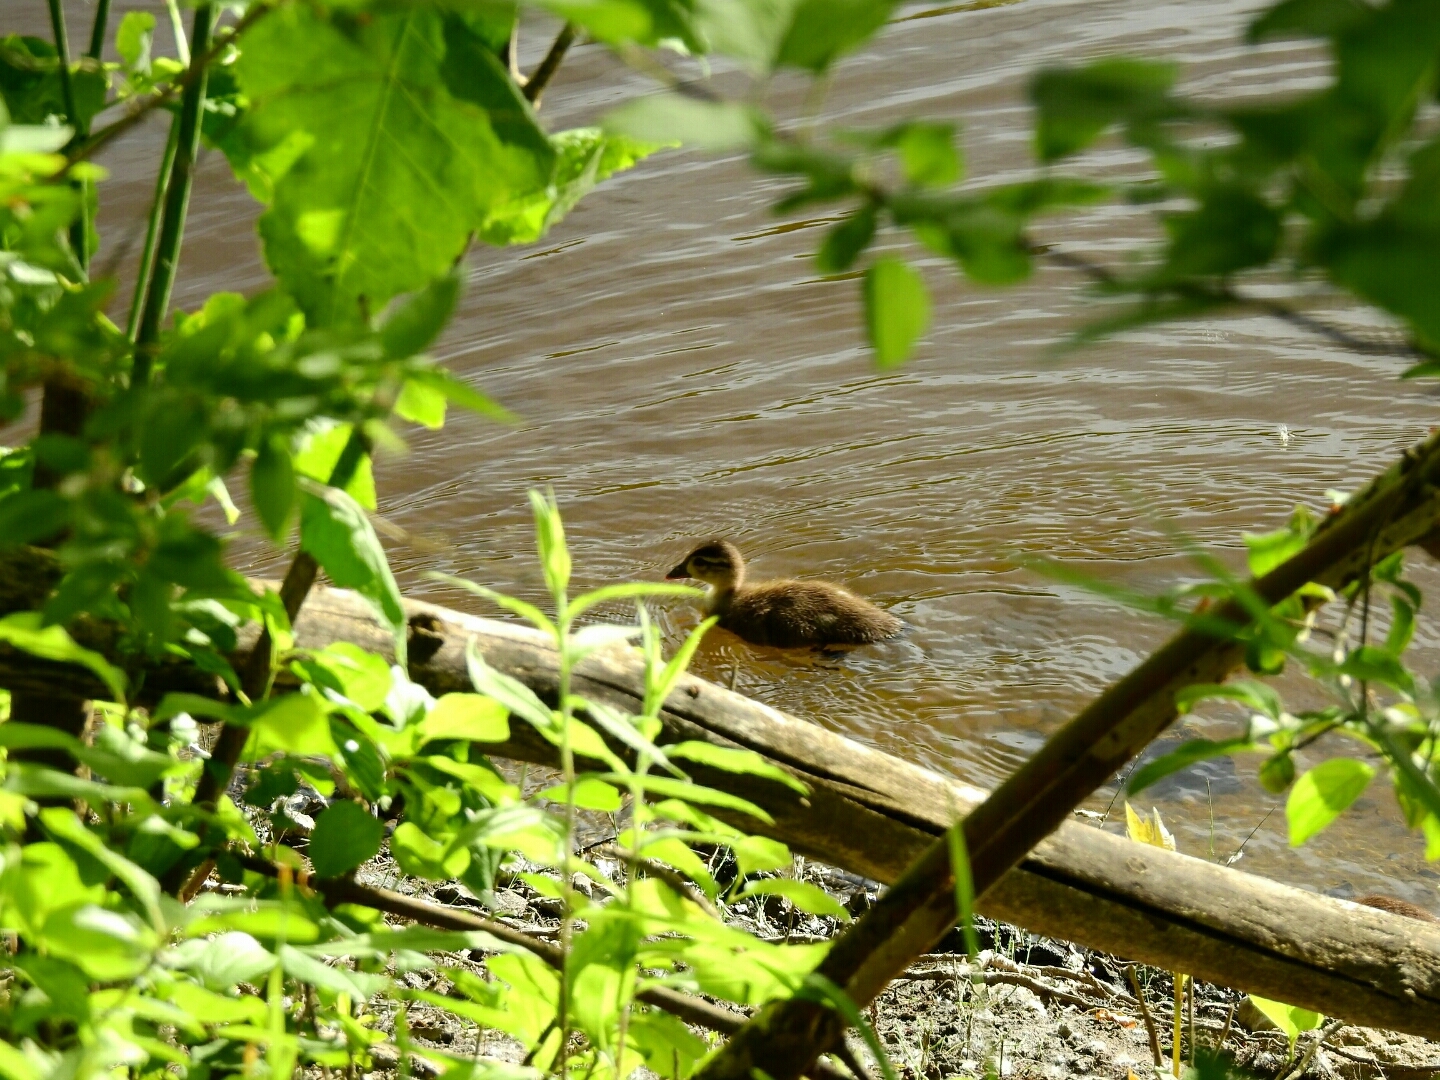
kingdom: Animalia
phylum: Chordata
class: Aves
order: Anseriformes
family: Anatidae
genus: Aix
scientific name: Aix sponsa
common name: Wood duck
